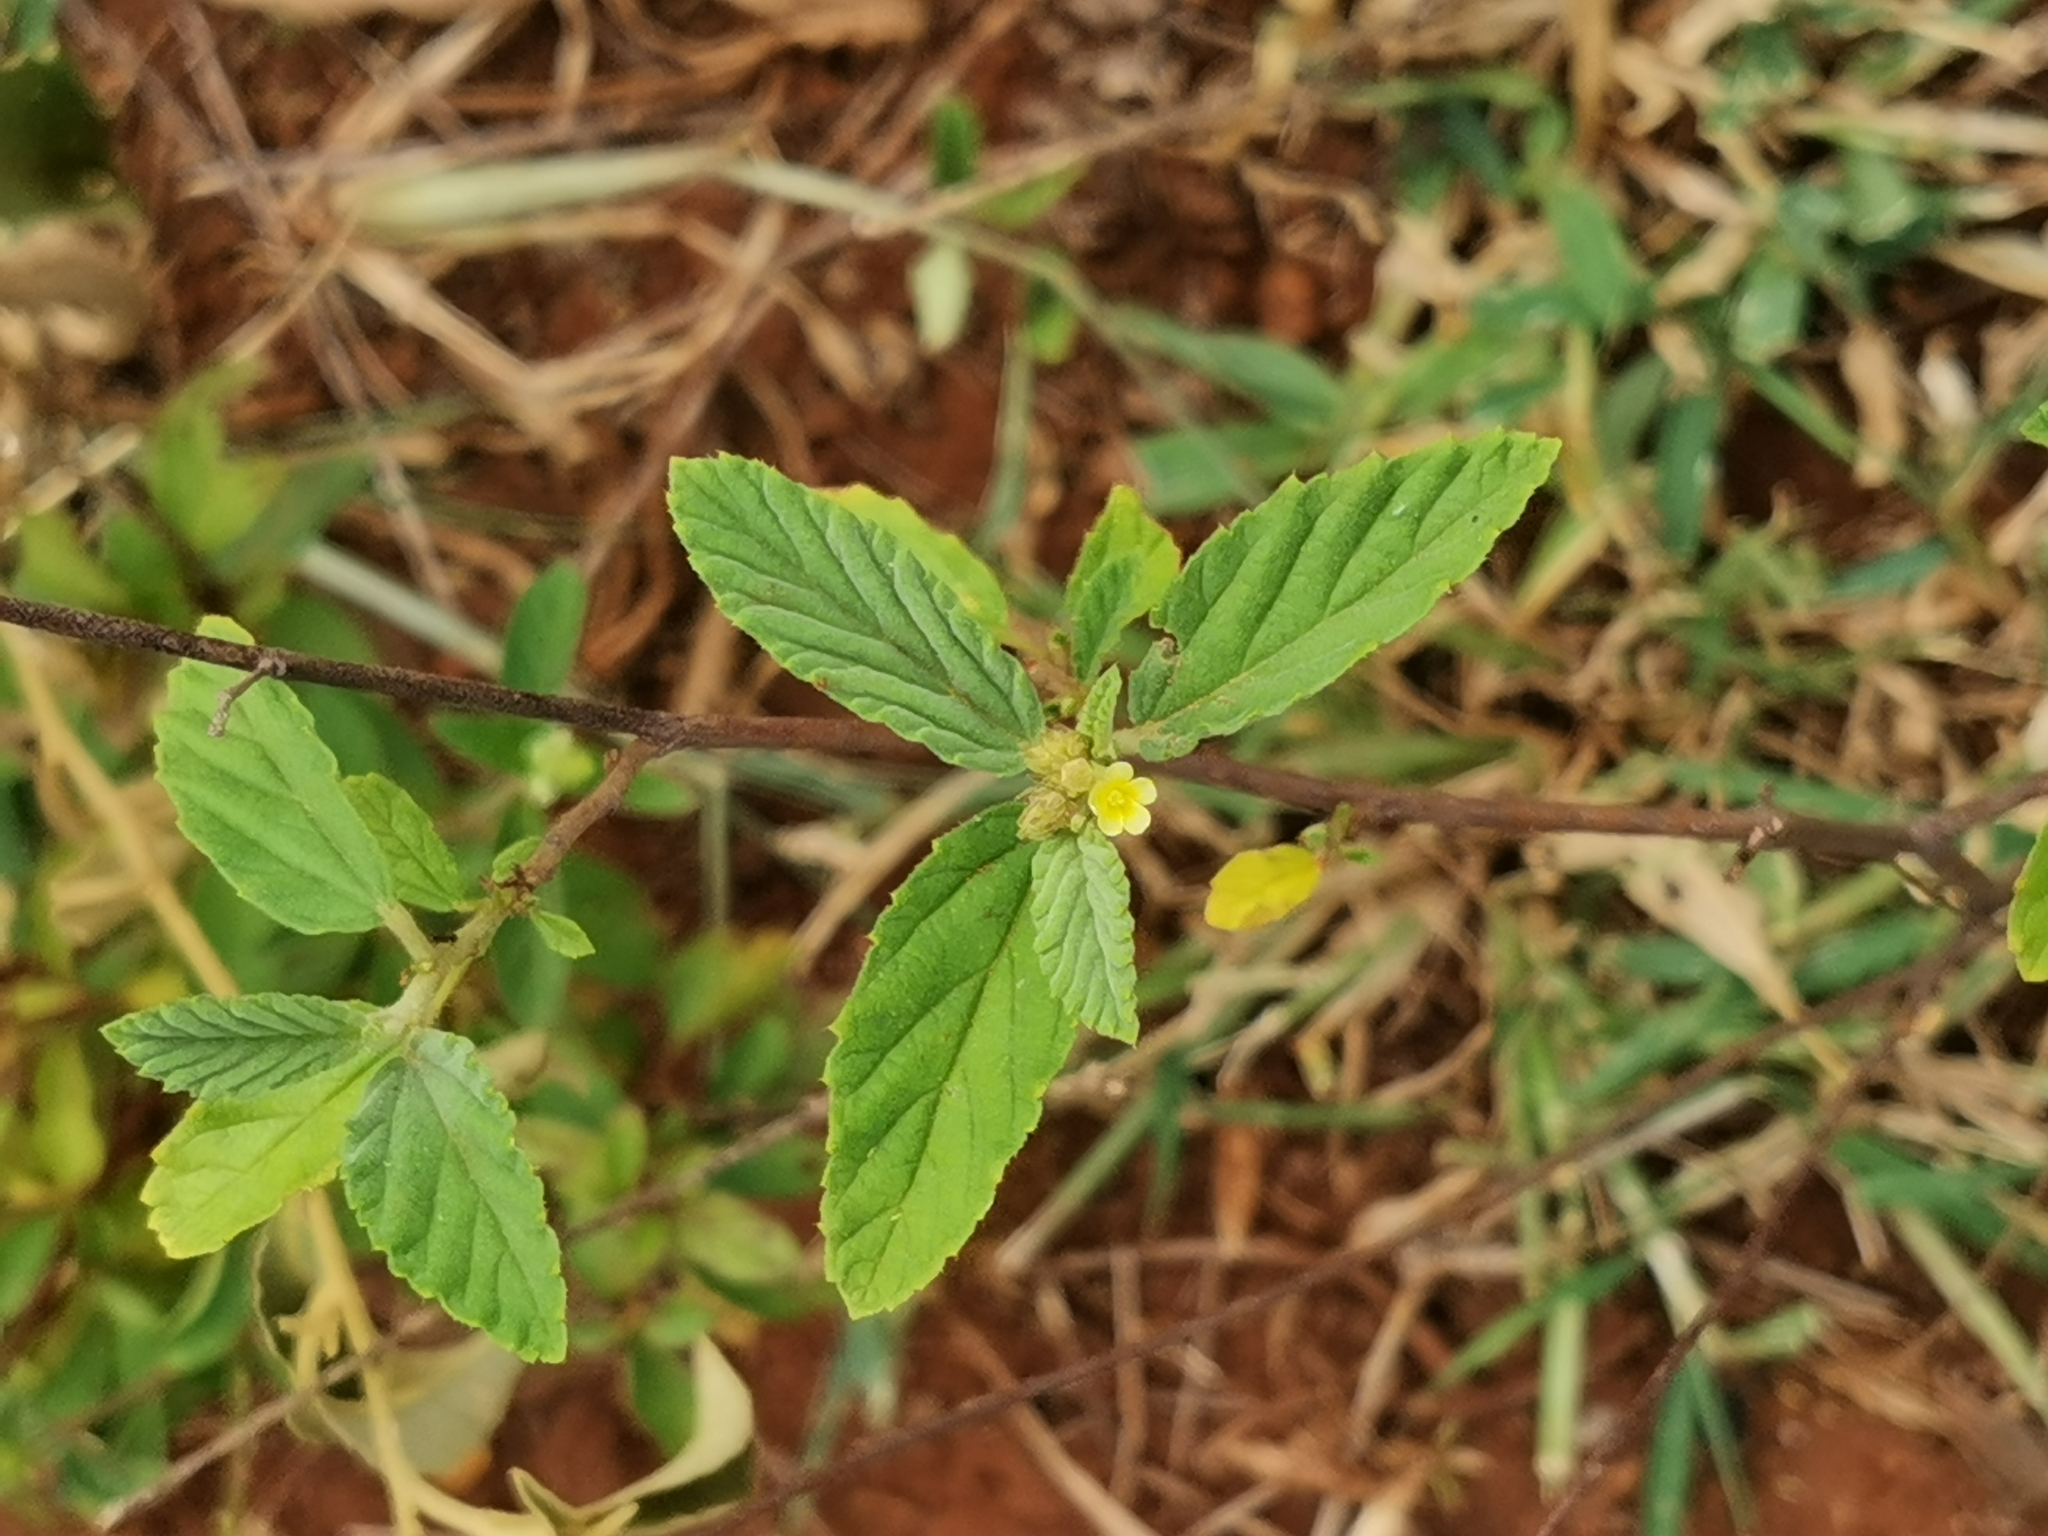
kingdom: Plantae
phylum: Tracheophyta
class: Magnoliopsida
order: Malvales
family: Malvaceae
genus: Waltheria
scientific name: Waltheria indica
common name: Leather-coat
